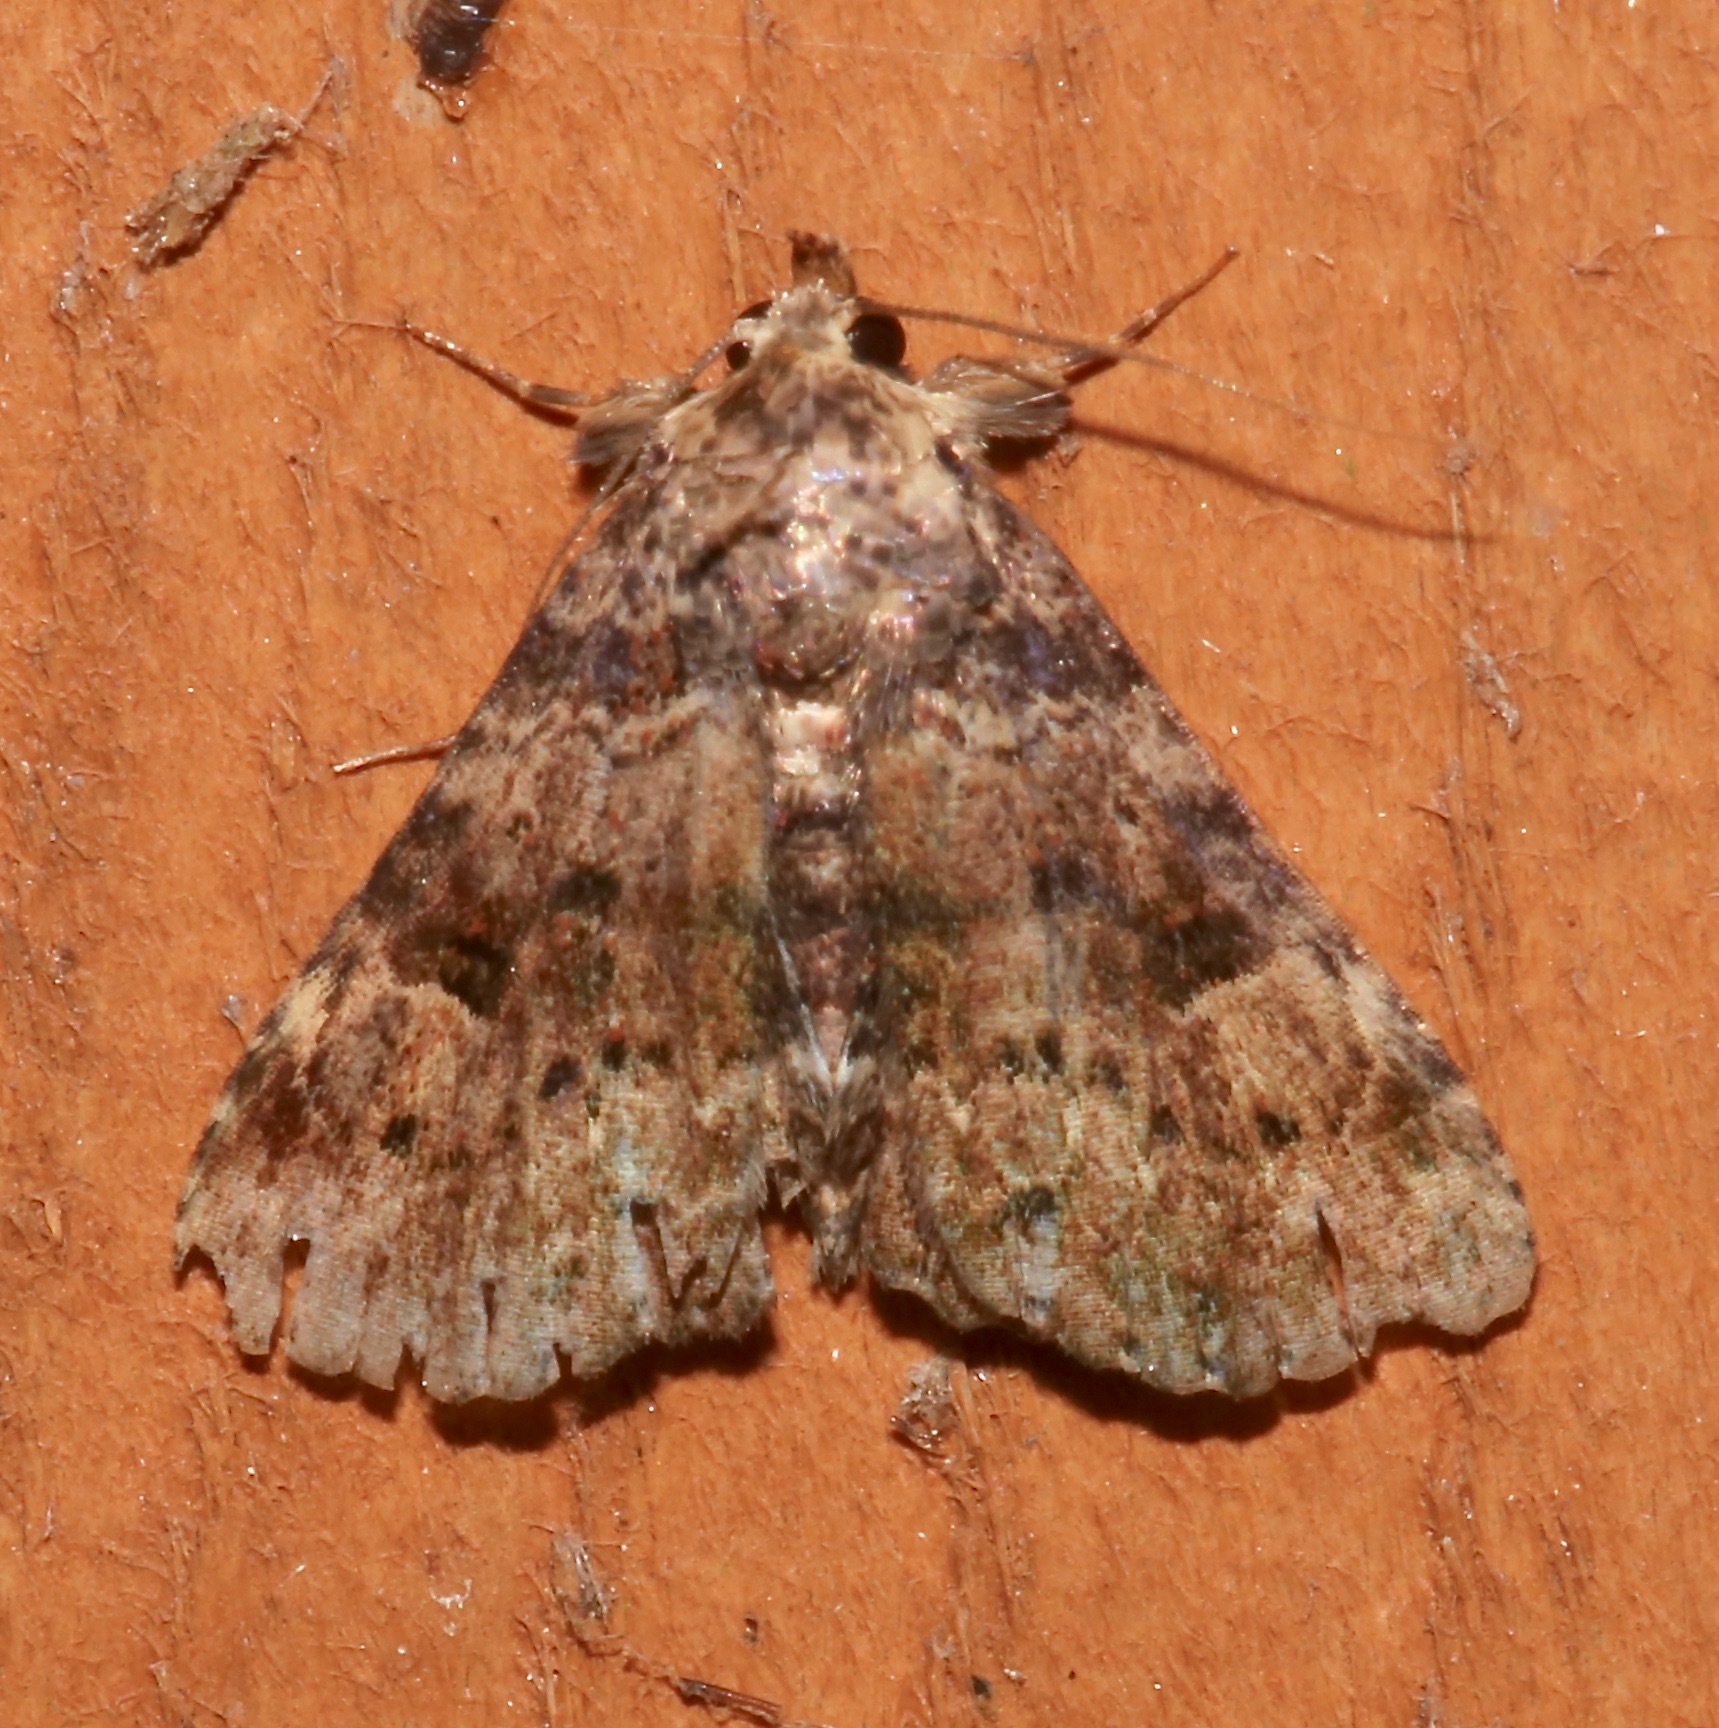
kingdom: Animalia
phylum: Arthropoda
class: Insecta
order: Lepidoptera
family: Erebidae
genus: Metalectra
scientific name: Metalectra discalis
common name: Common fungus moth
